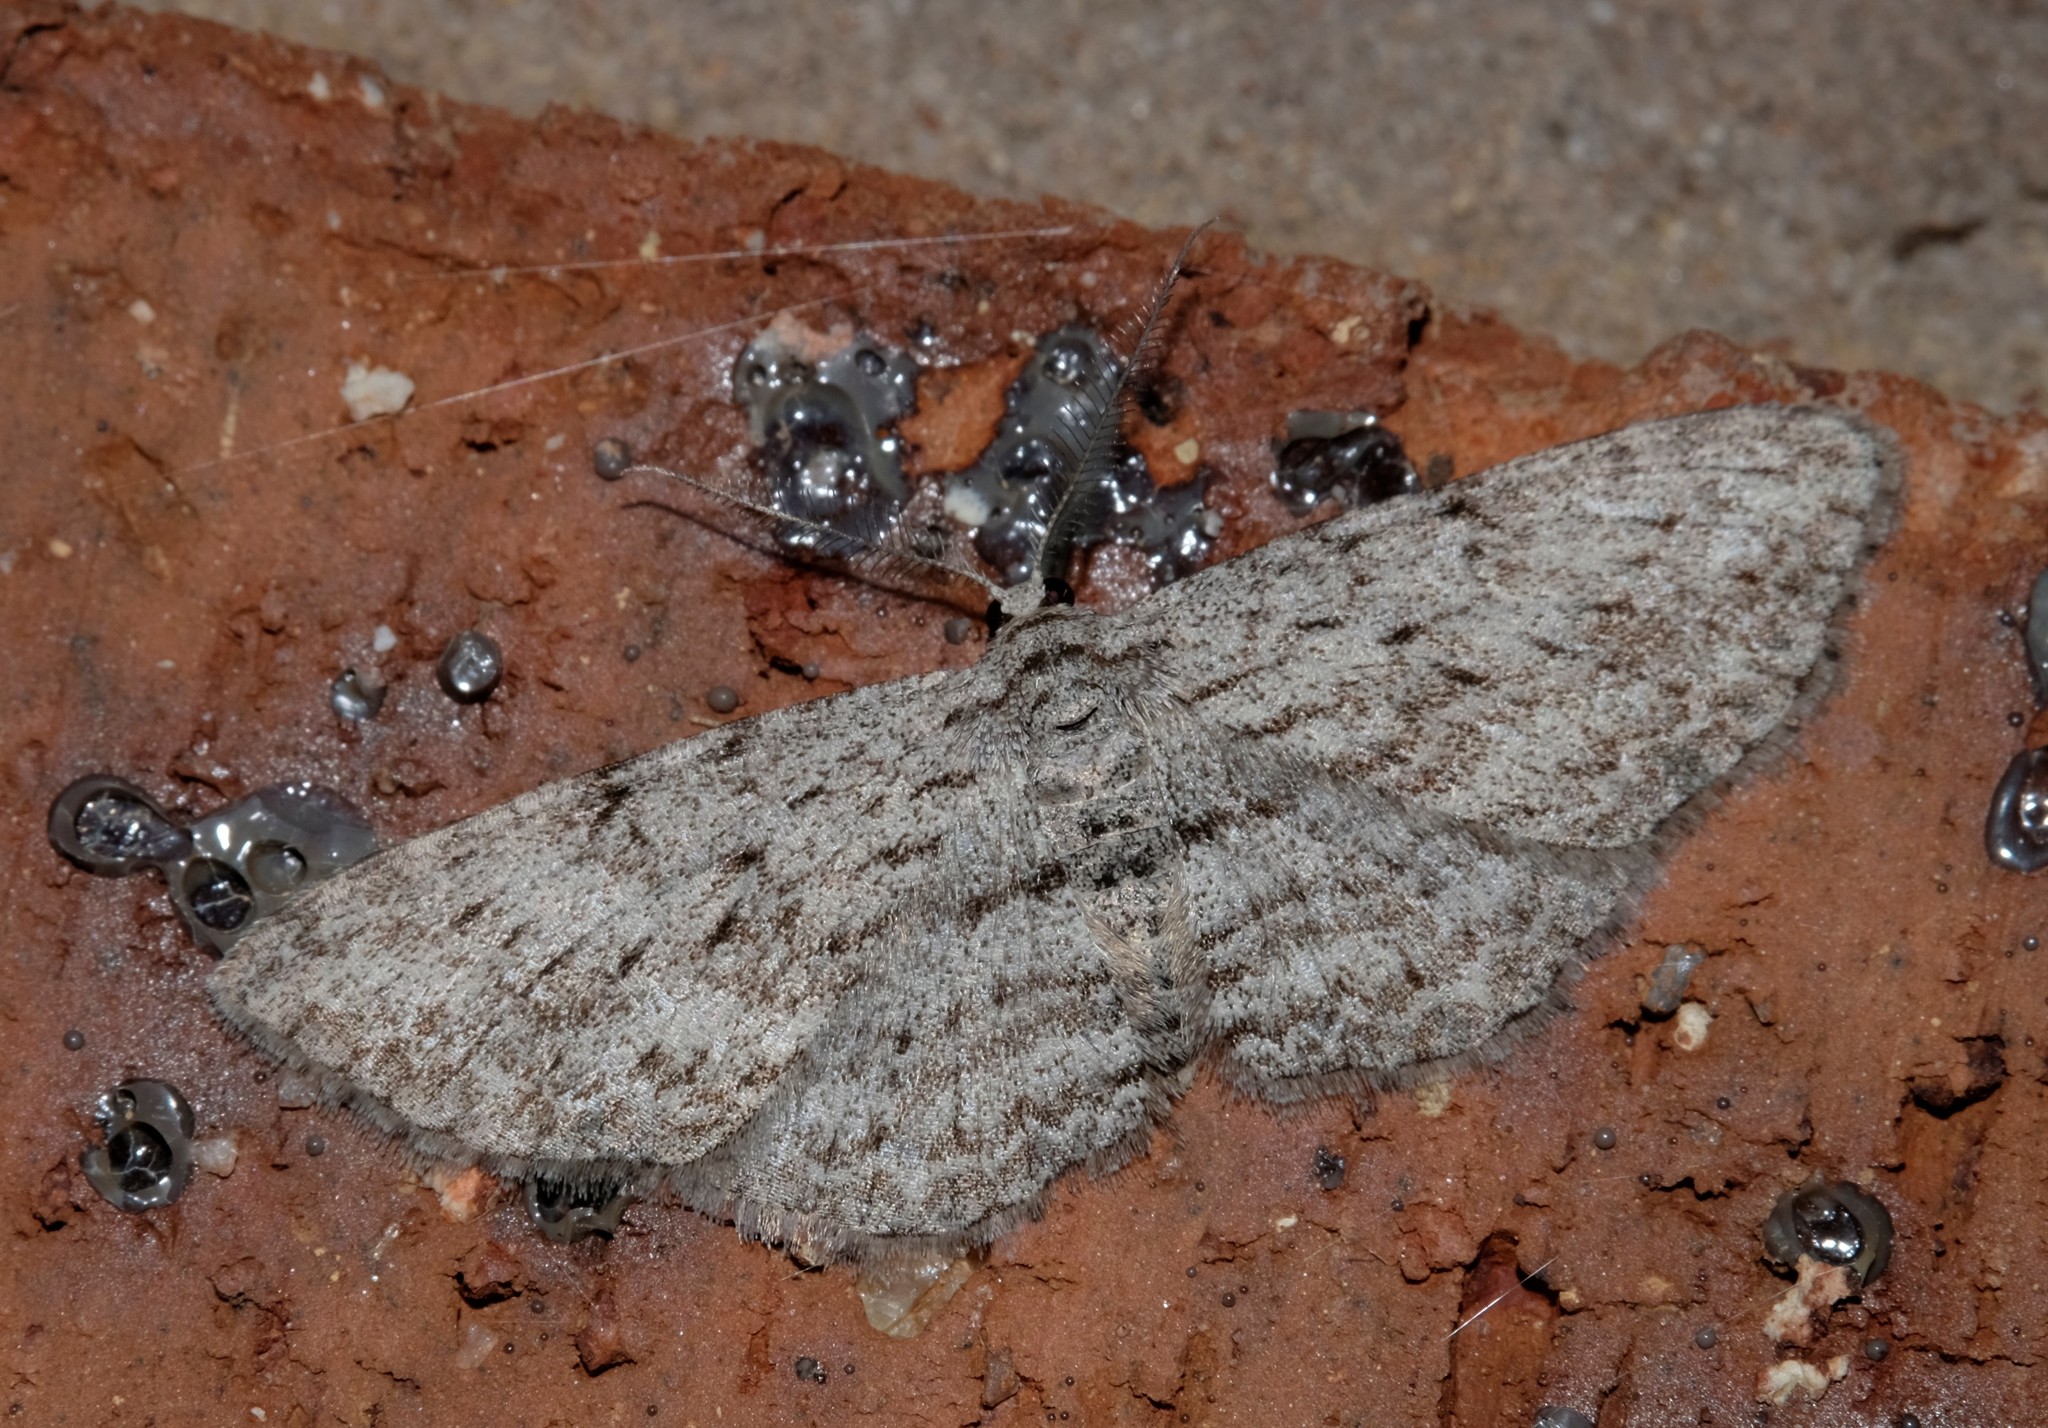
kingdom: Animalia
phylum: Arthropoda
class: Insecta
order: Lepidoptera
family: Geometridae
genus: Phelotis
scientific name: Phelotis cognata
